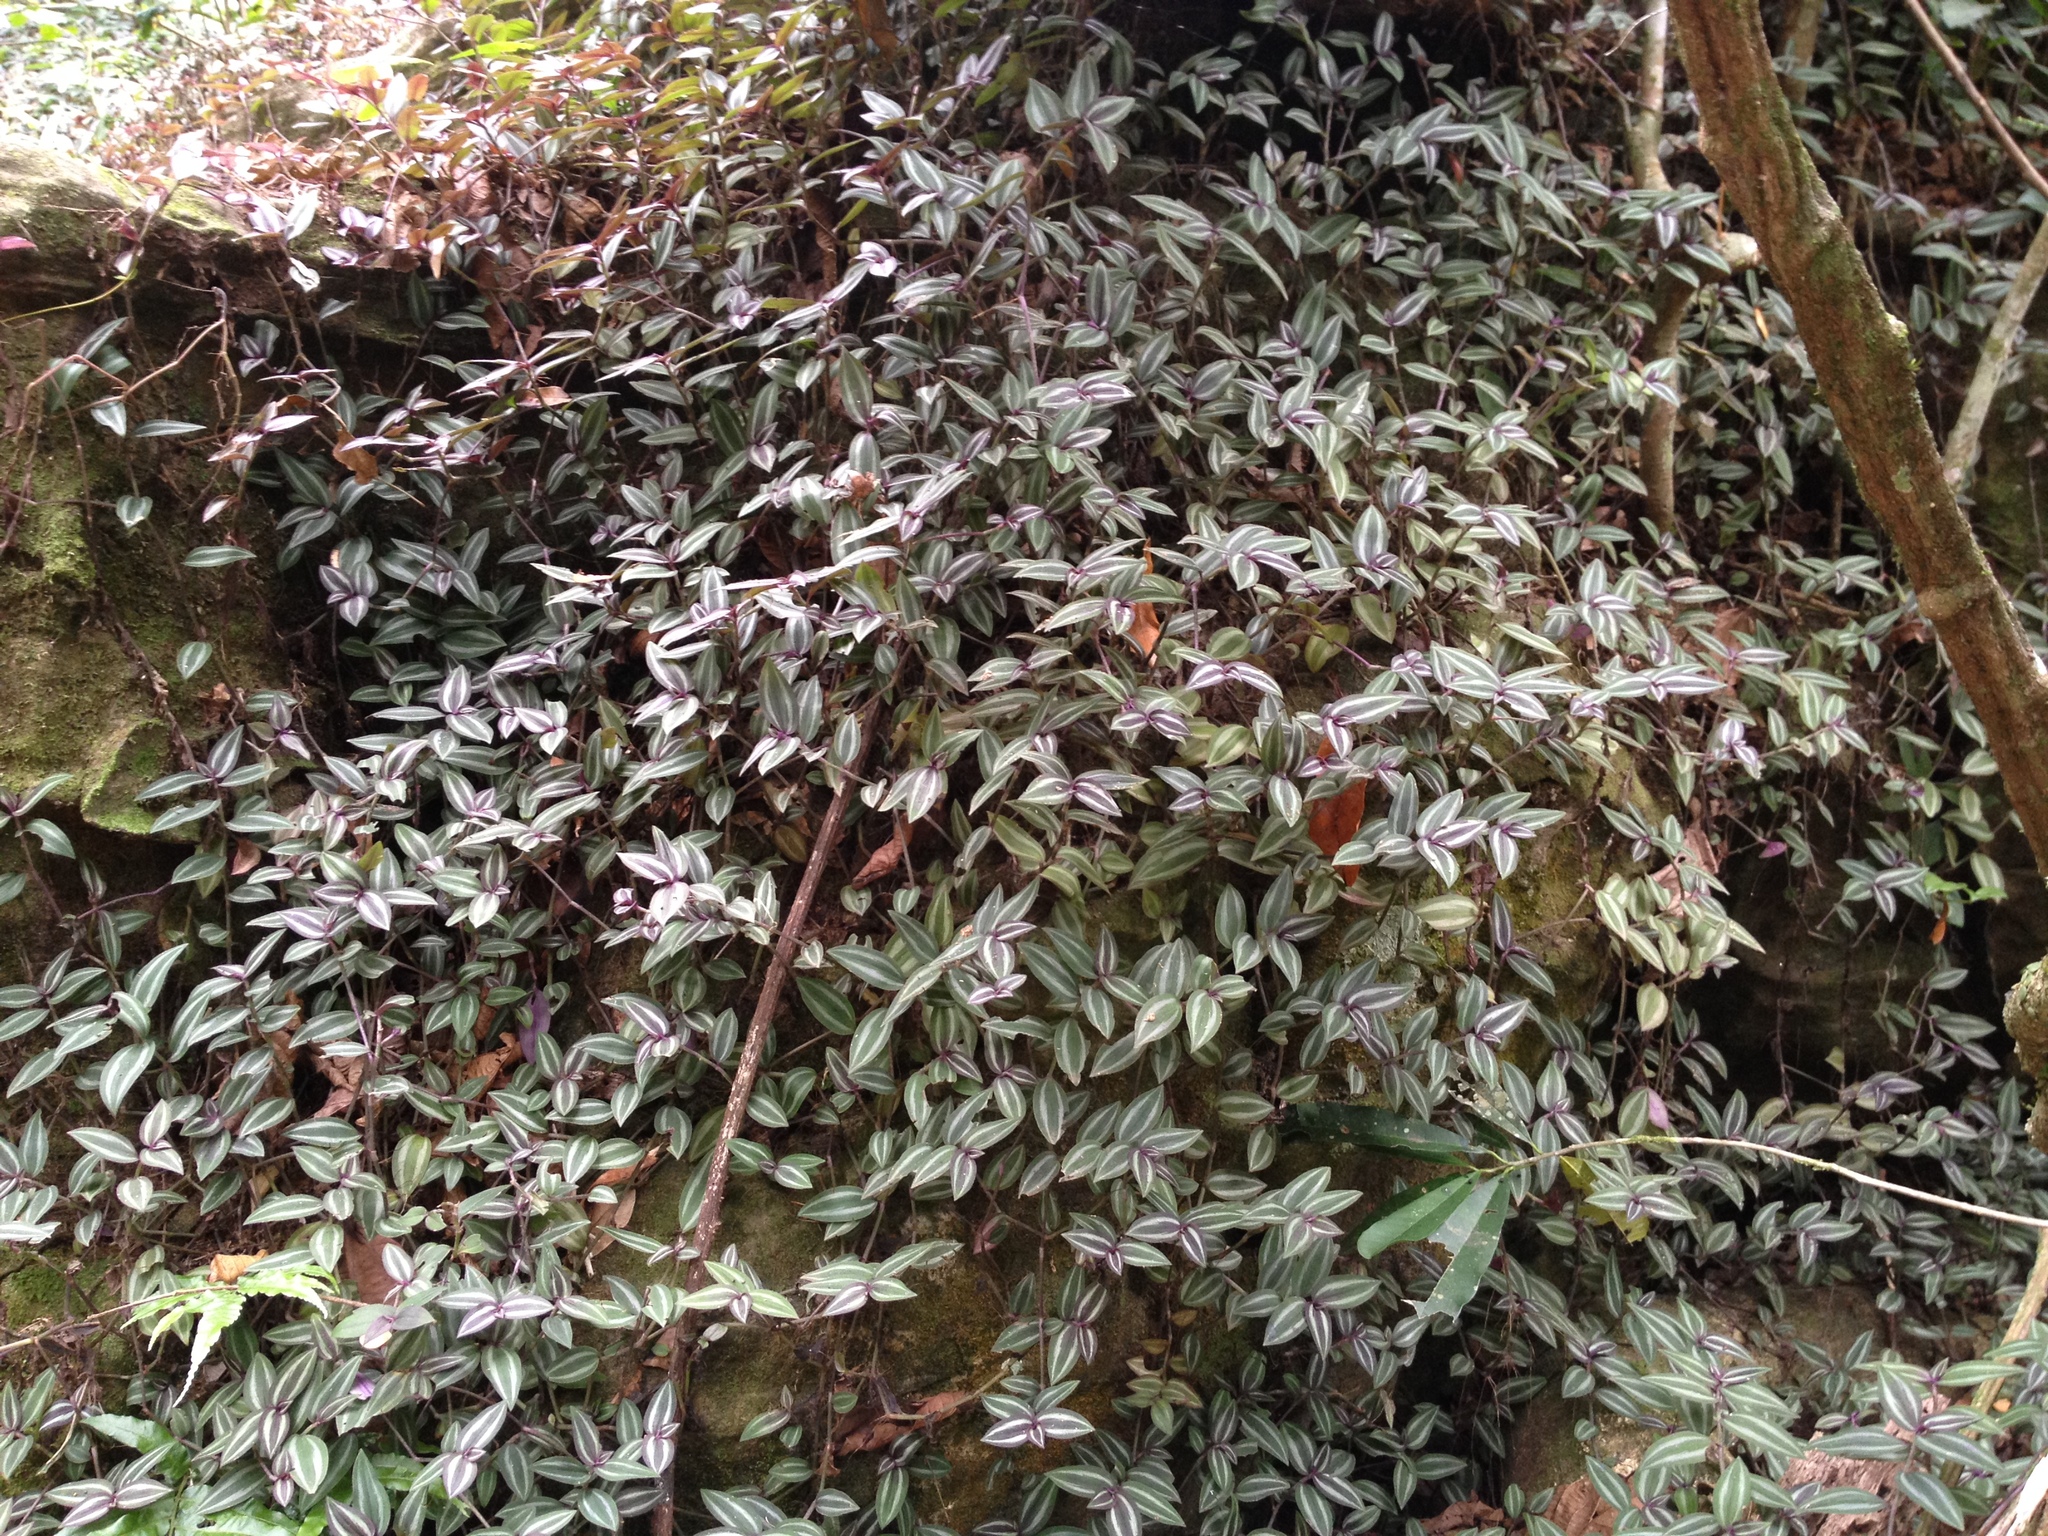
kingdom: Plantae
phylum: Tracheophyta
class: Liliopsida
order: Commelinales
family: Commelinaceae
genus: Tradescantia
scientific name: Tradescantia zebrina
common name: Inchplant
